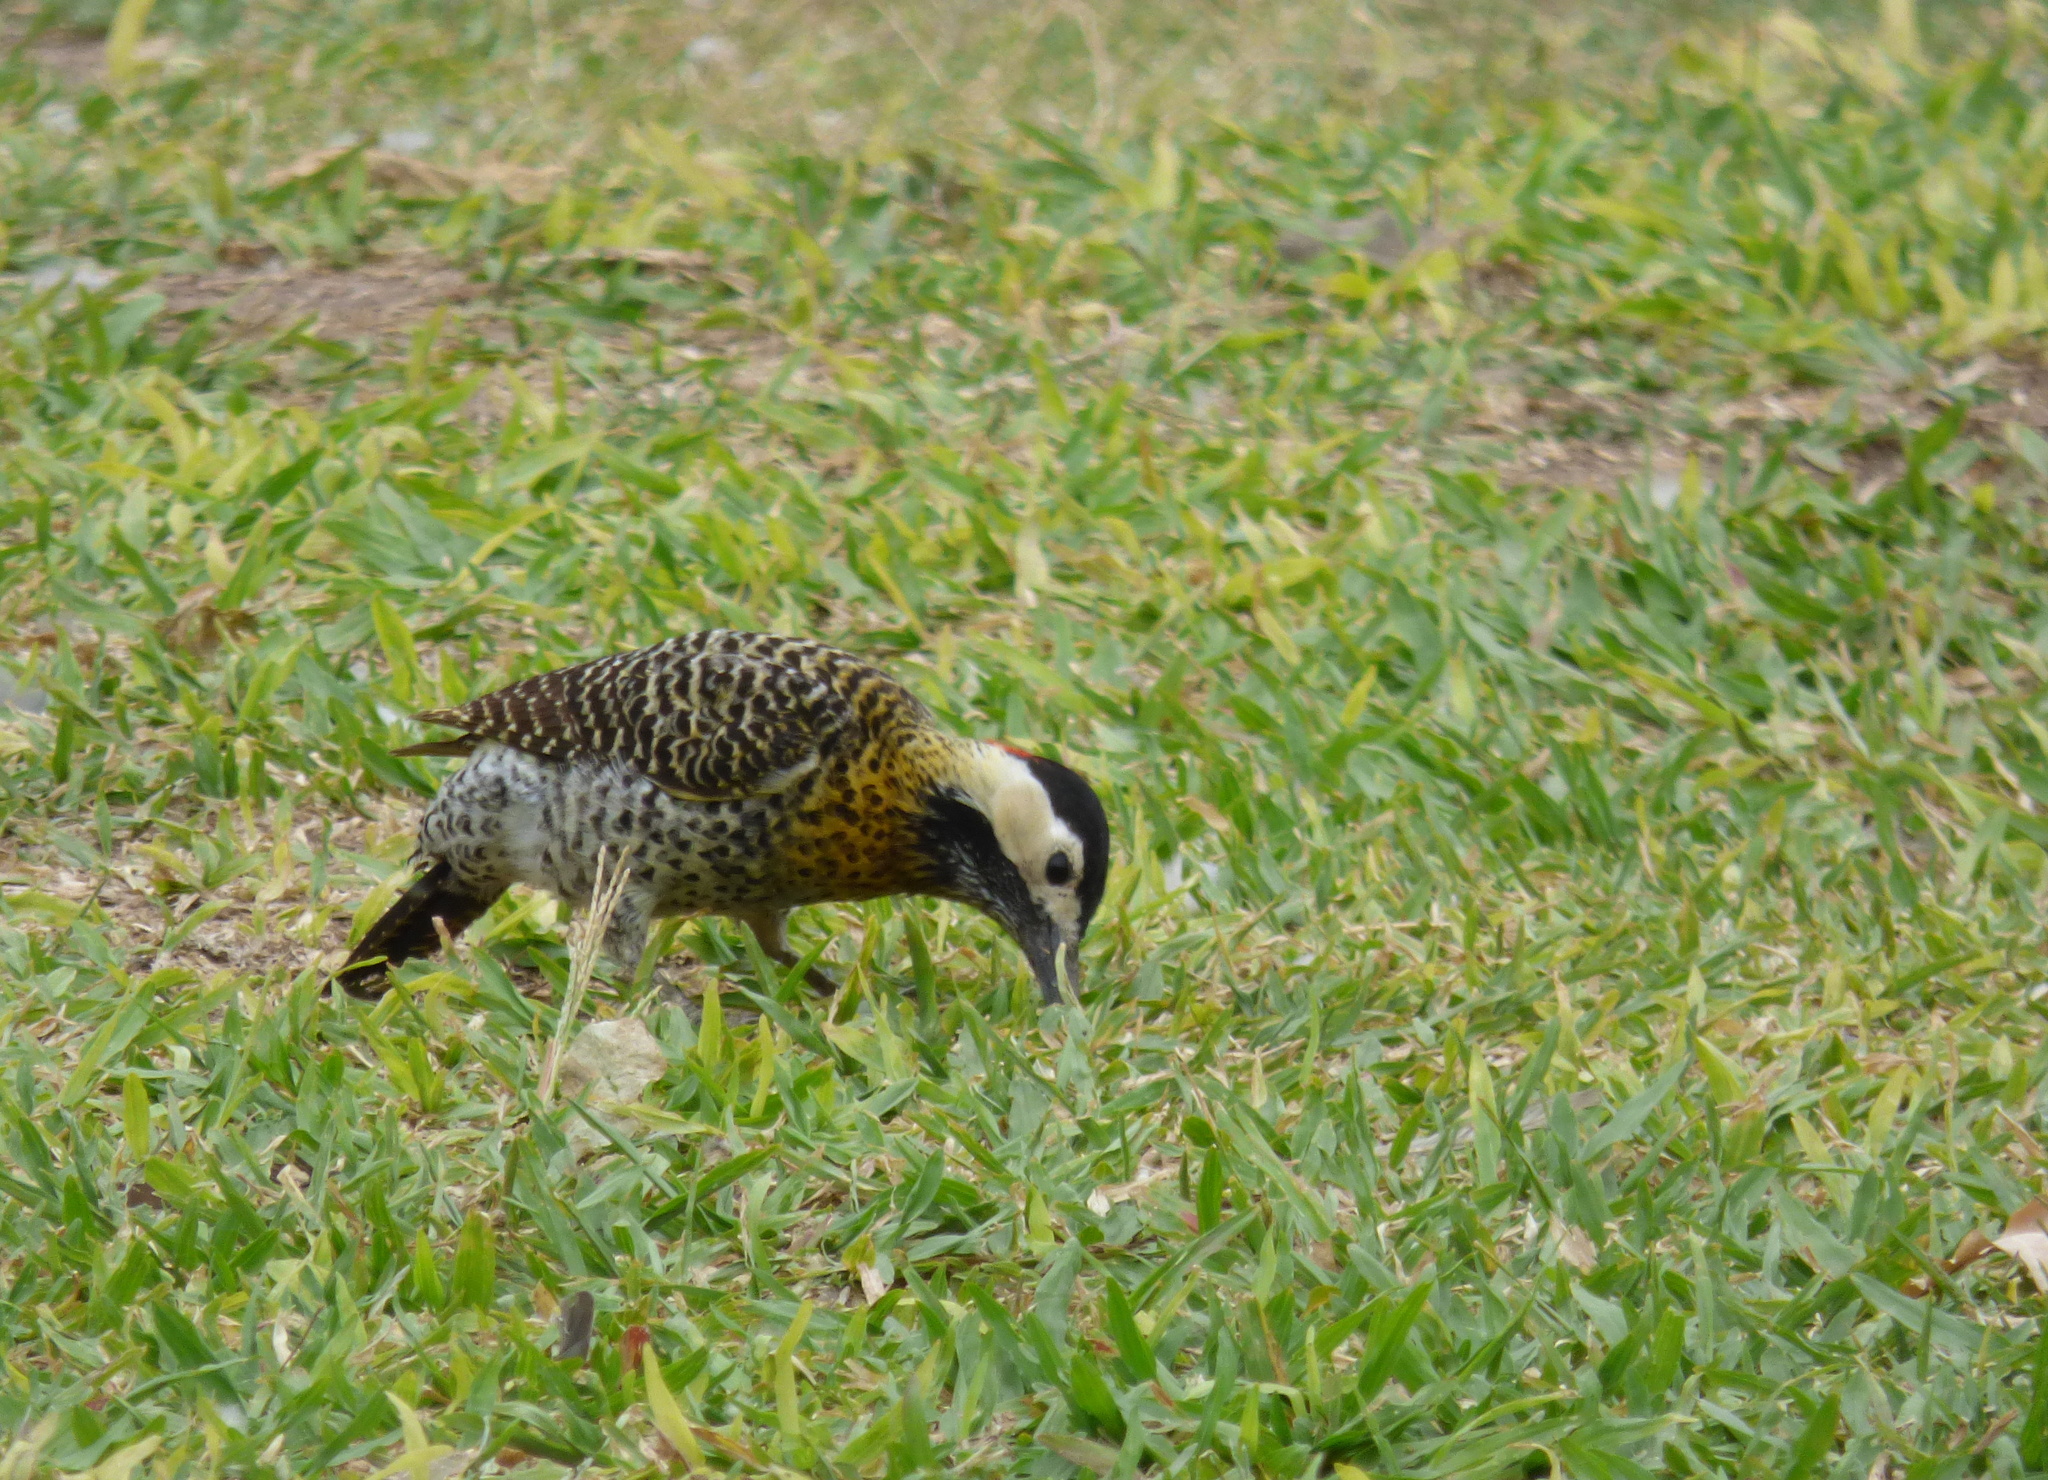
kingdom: Animalia
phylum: Chordata
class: Aves
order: Piciformes
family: Picidae
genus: Colaptes
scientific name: Colaptes melanochloros
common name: Green-barred woodpecker
